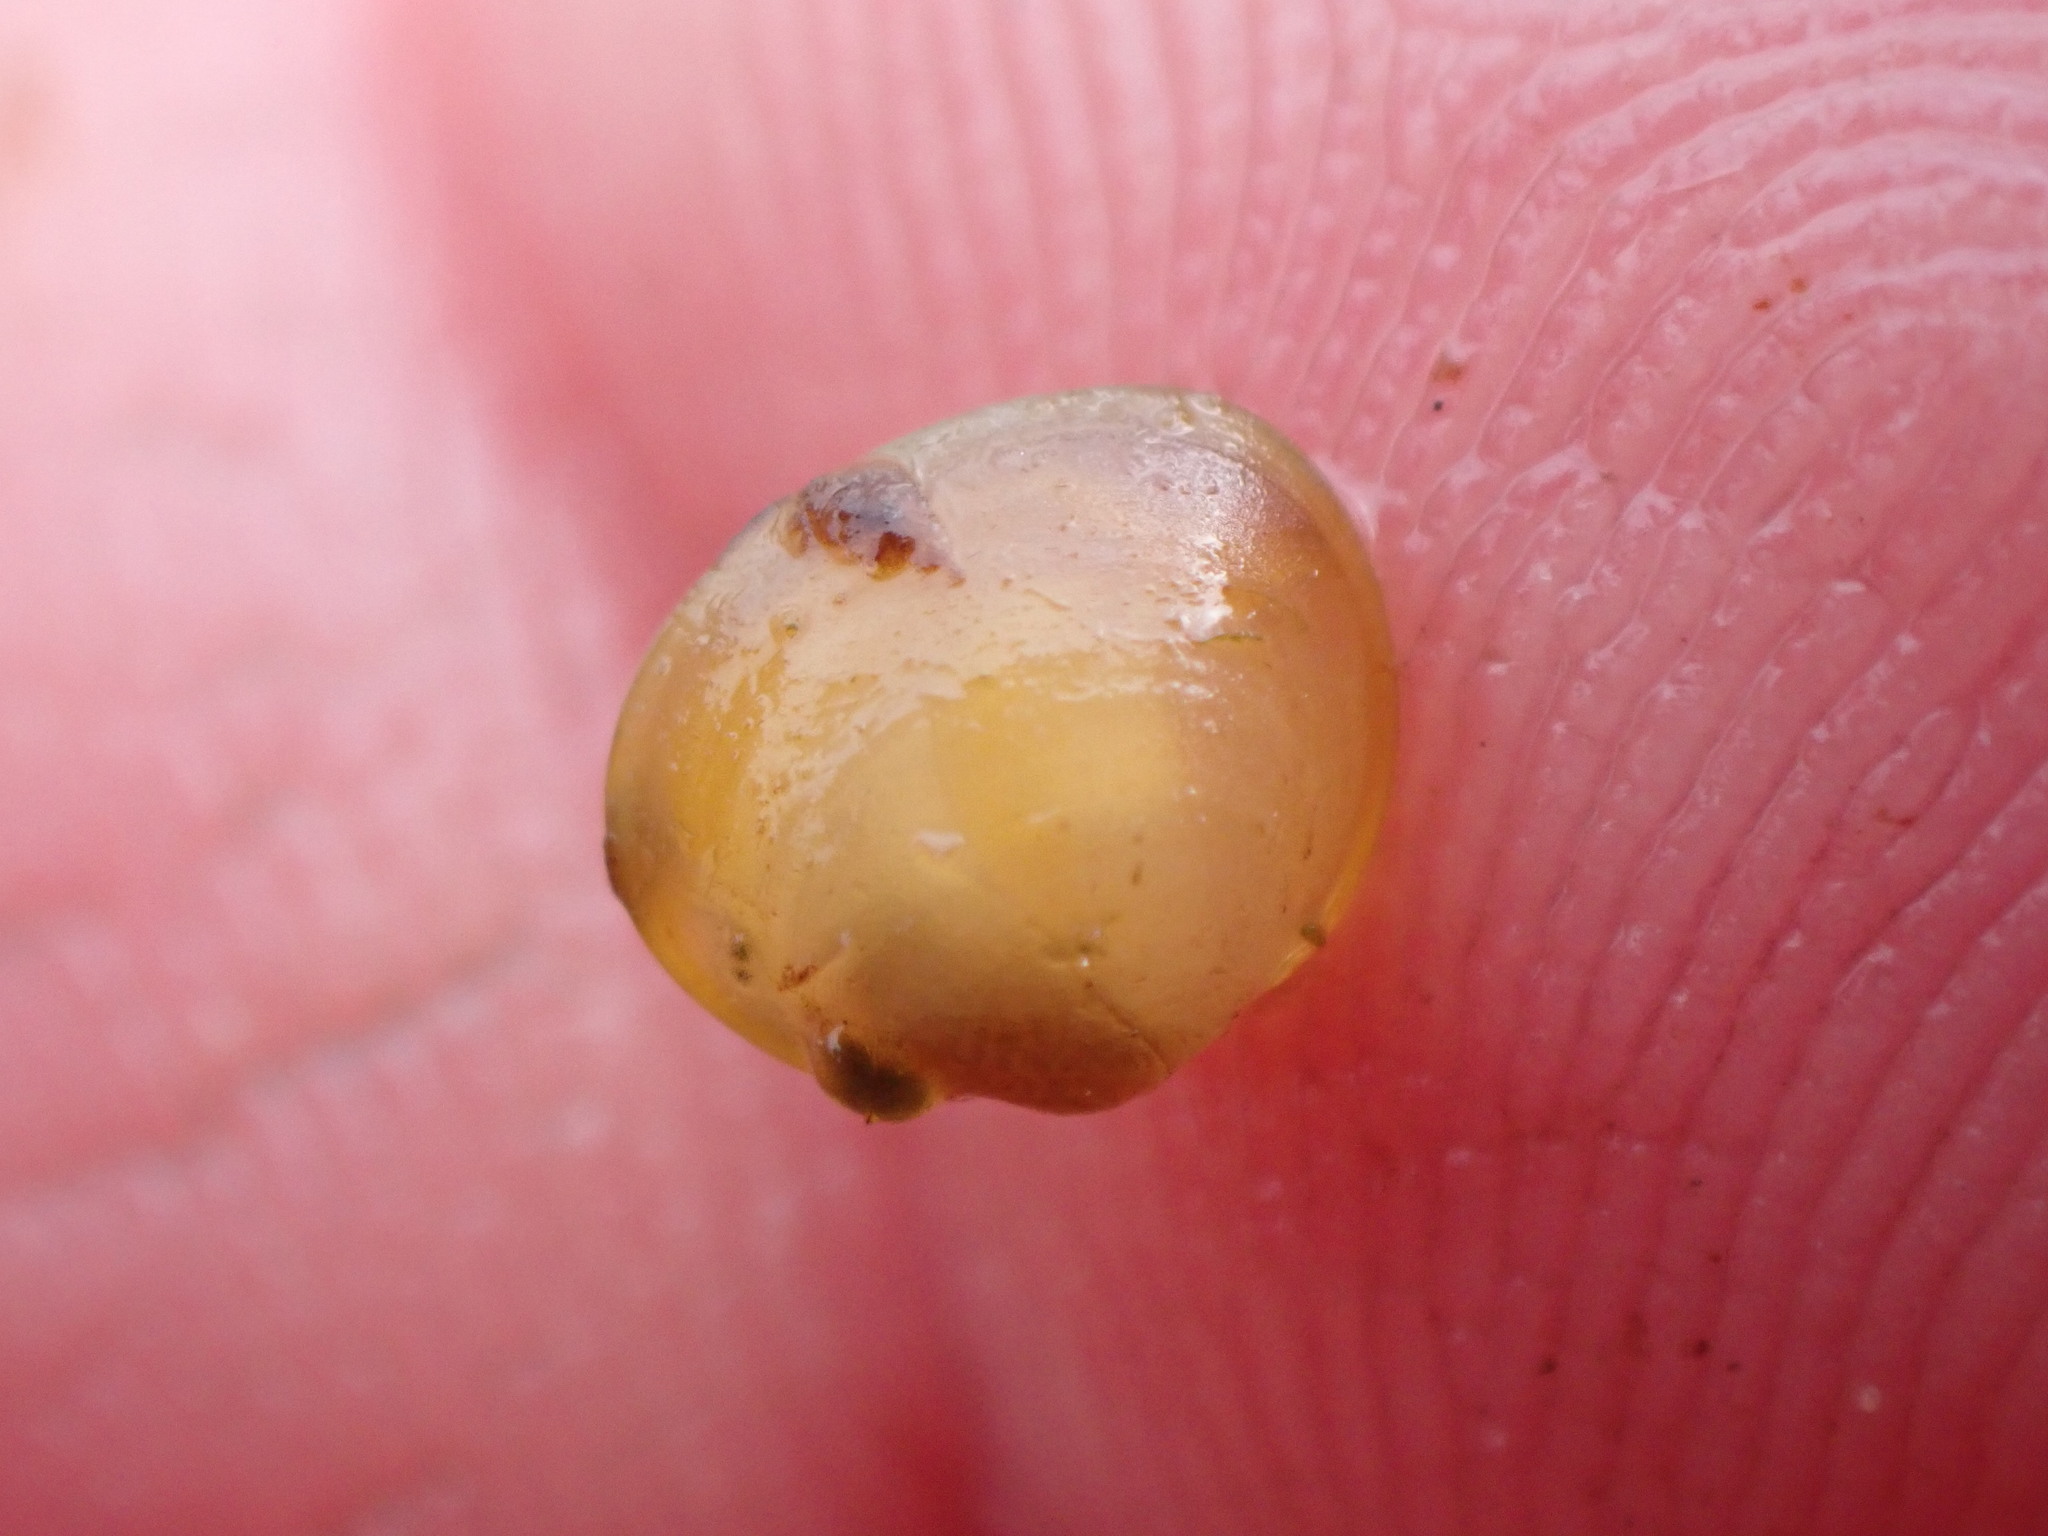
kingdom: Animalia
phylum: Mollusca
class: Bivalvia
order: Sphaeriida
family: Sphaeriidae
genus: Sphaerium
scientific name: Sphaerium nitidum
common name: Arctic fingernailclam
